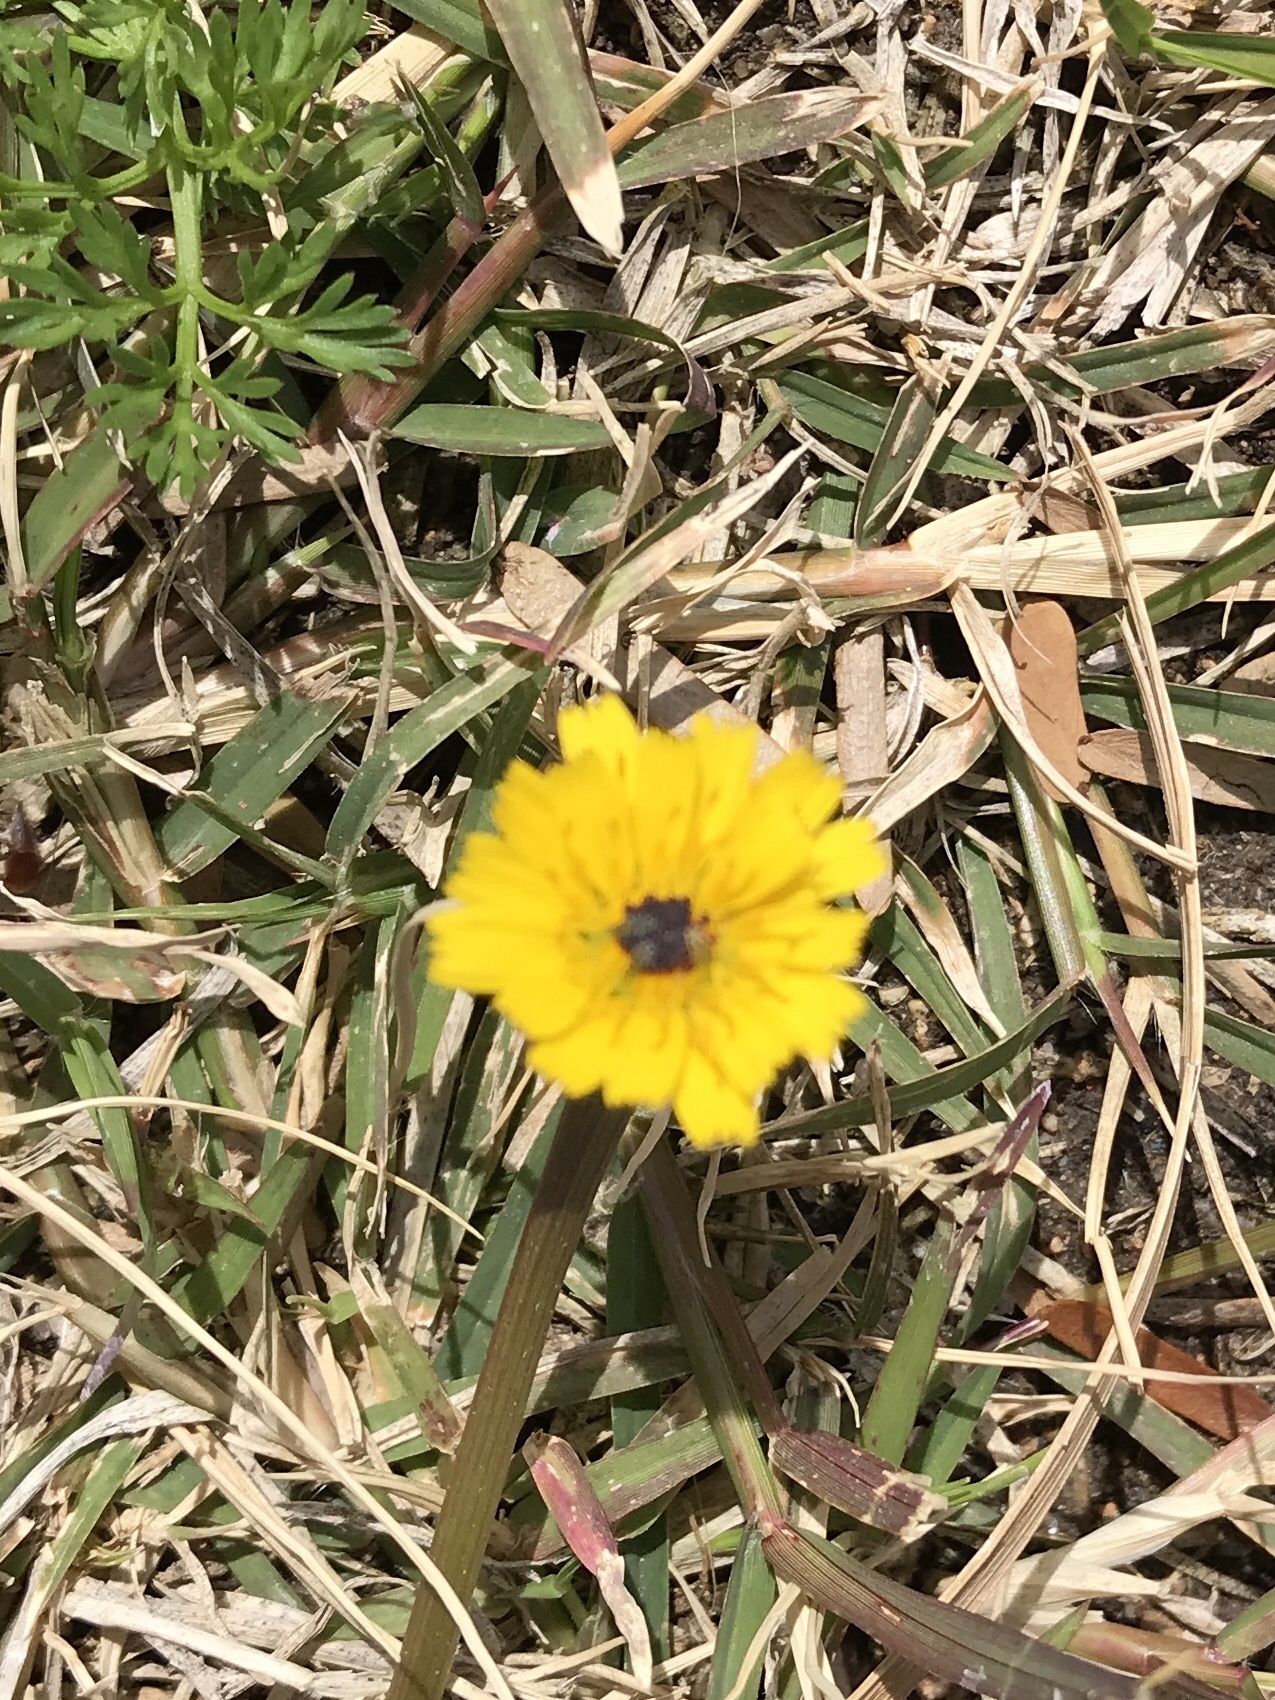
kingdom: Plantae
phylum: Tracheophyta
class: Magnoliopsida
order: Asterales
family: Asteraceae
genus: Hedypnois
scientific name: Hedypnois rhagadioloides
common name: Cretan weed
